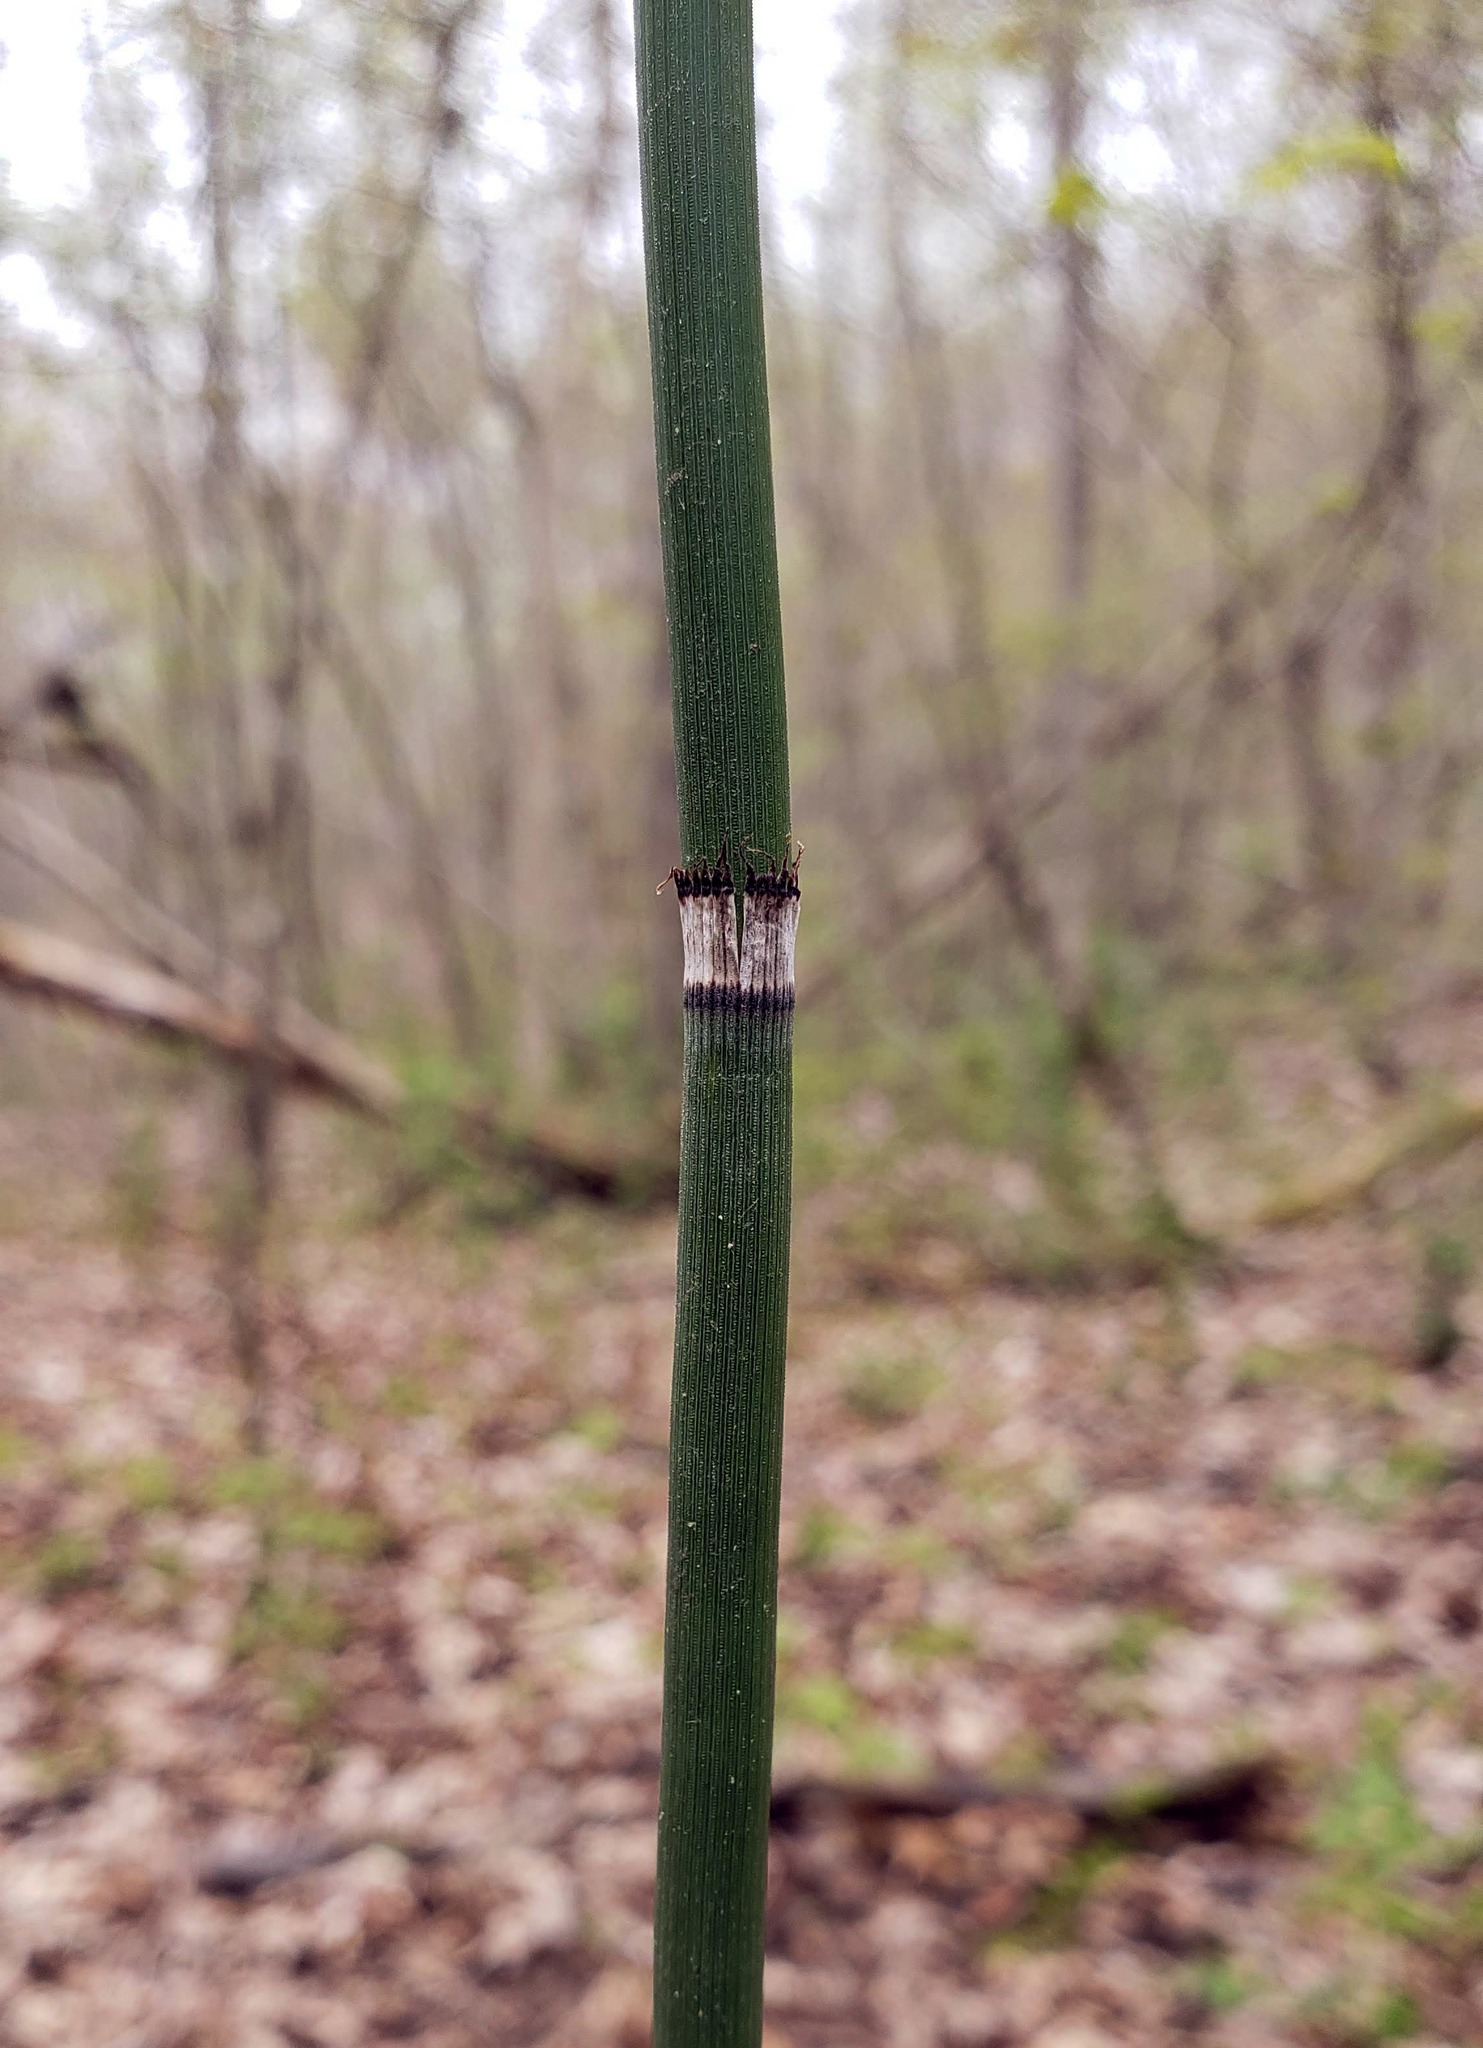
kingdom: Plantae
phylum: Tracheophyta
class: Polypodiopsida
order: Equisetales
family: Equisetaceae
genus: Equisetum
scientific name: Equisetum hyemale
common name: Rough horsetail
